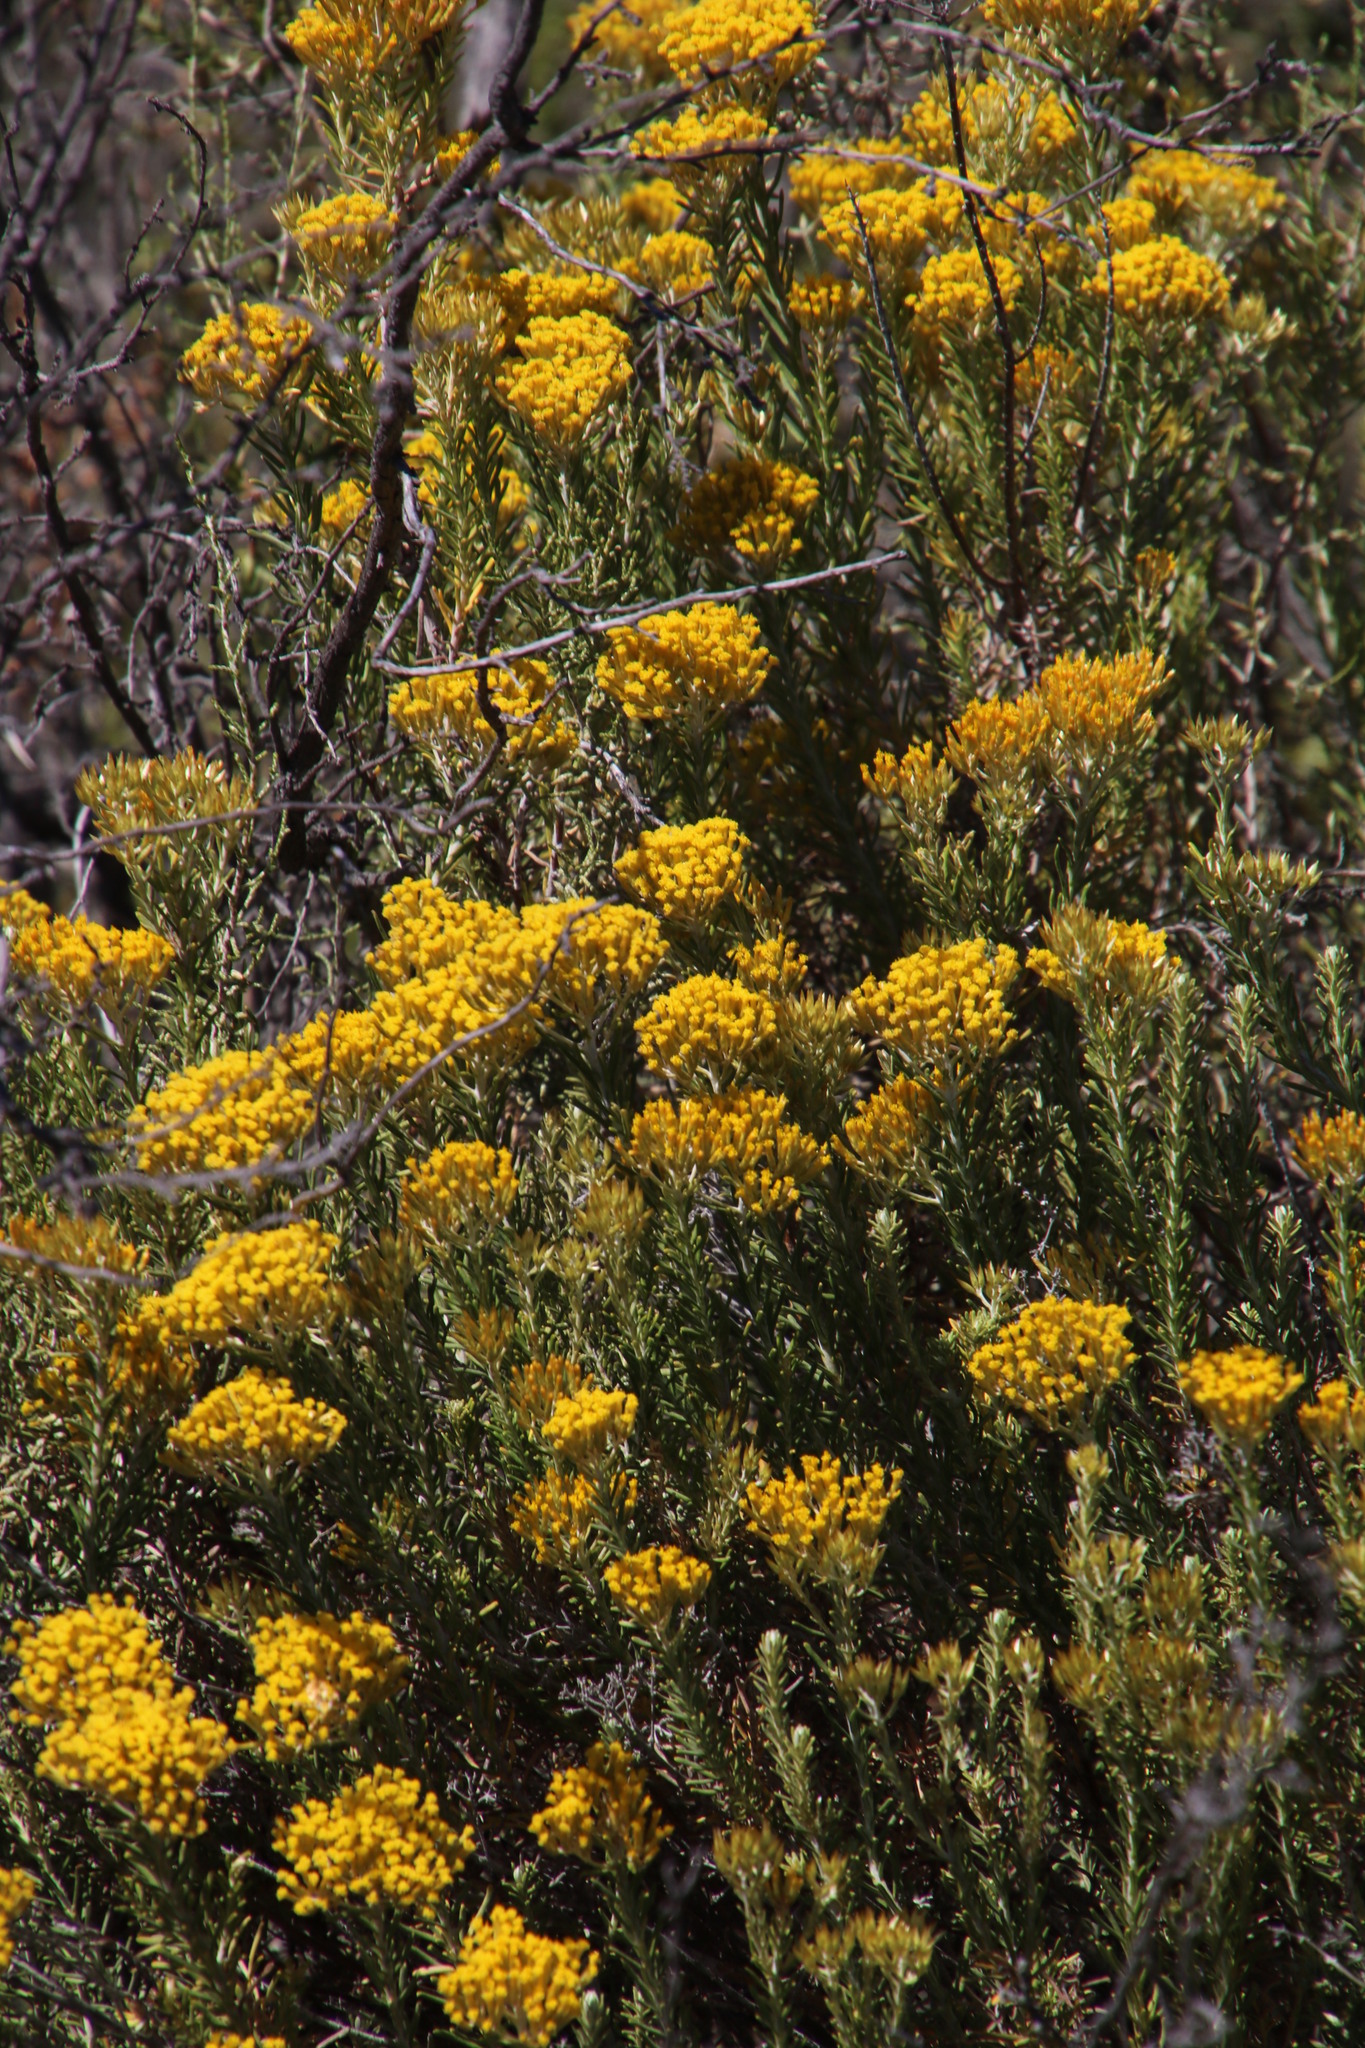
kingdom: Plantae
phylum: Tracheophyta
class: Magnoliopsida
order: Asterales
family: Asteraceae
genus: Helichrysum
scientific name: Helichrysum hamulosum
